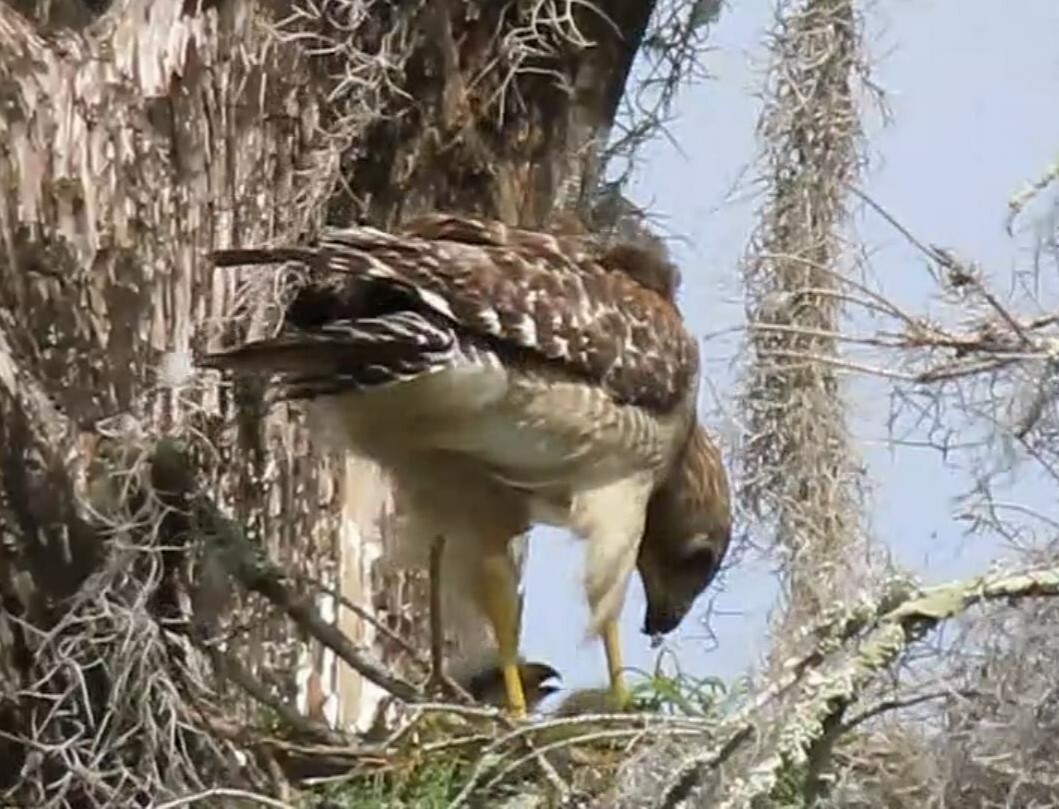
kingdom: Animalia
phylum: Chordata
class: Aves
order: Accipitriformes
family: Accipitridae
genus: Buteo
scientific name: Buteo lineatus
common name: Red-shouldered hawk
